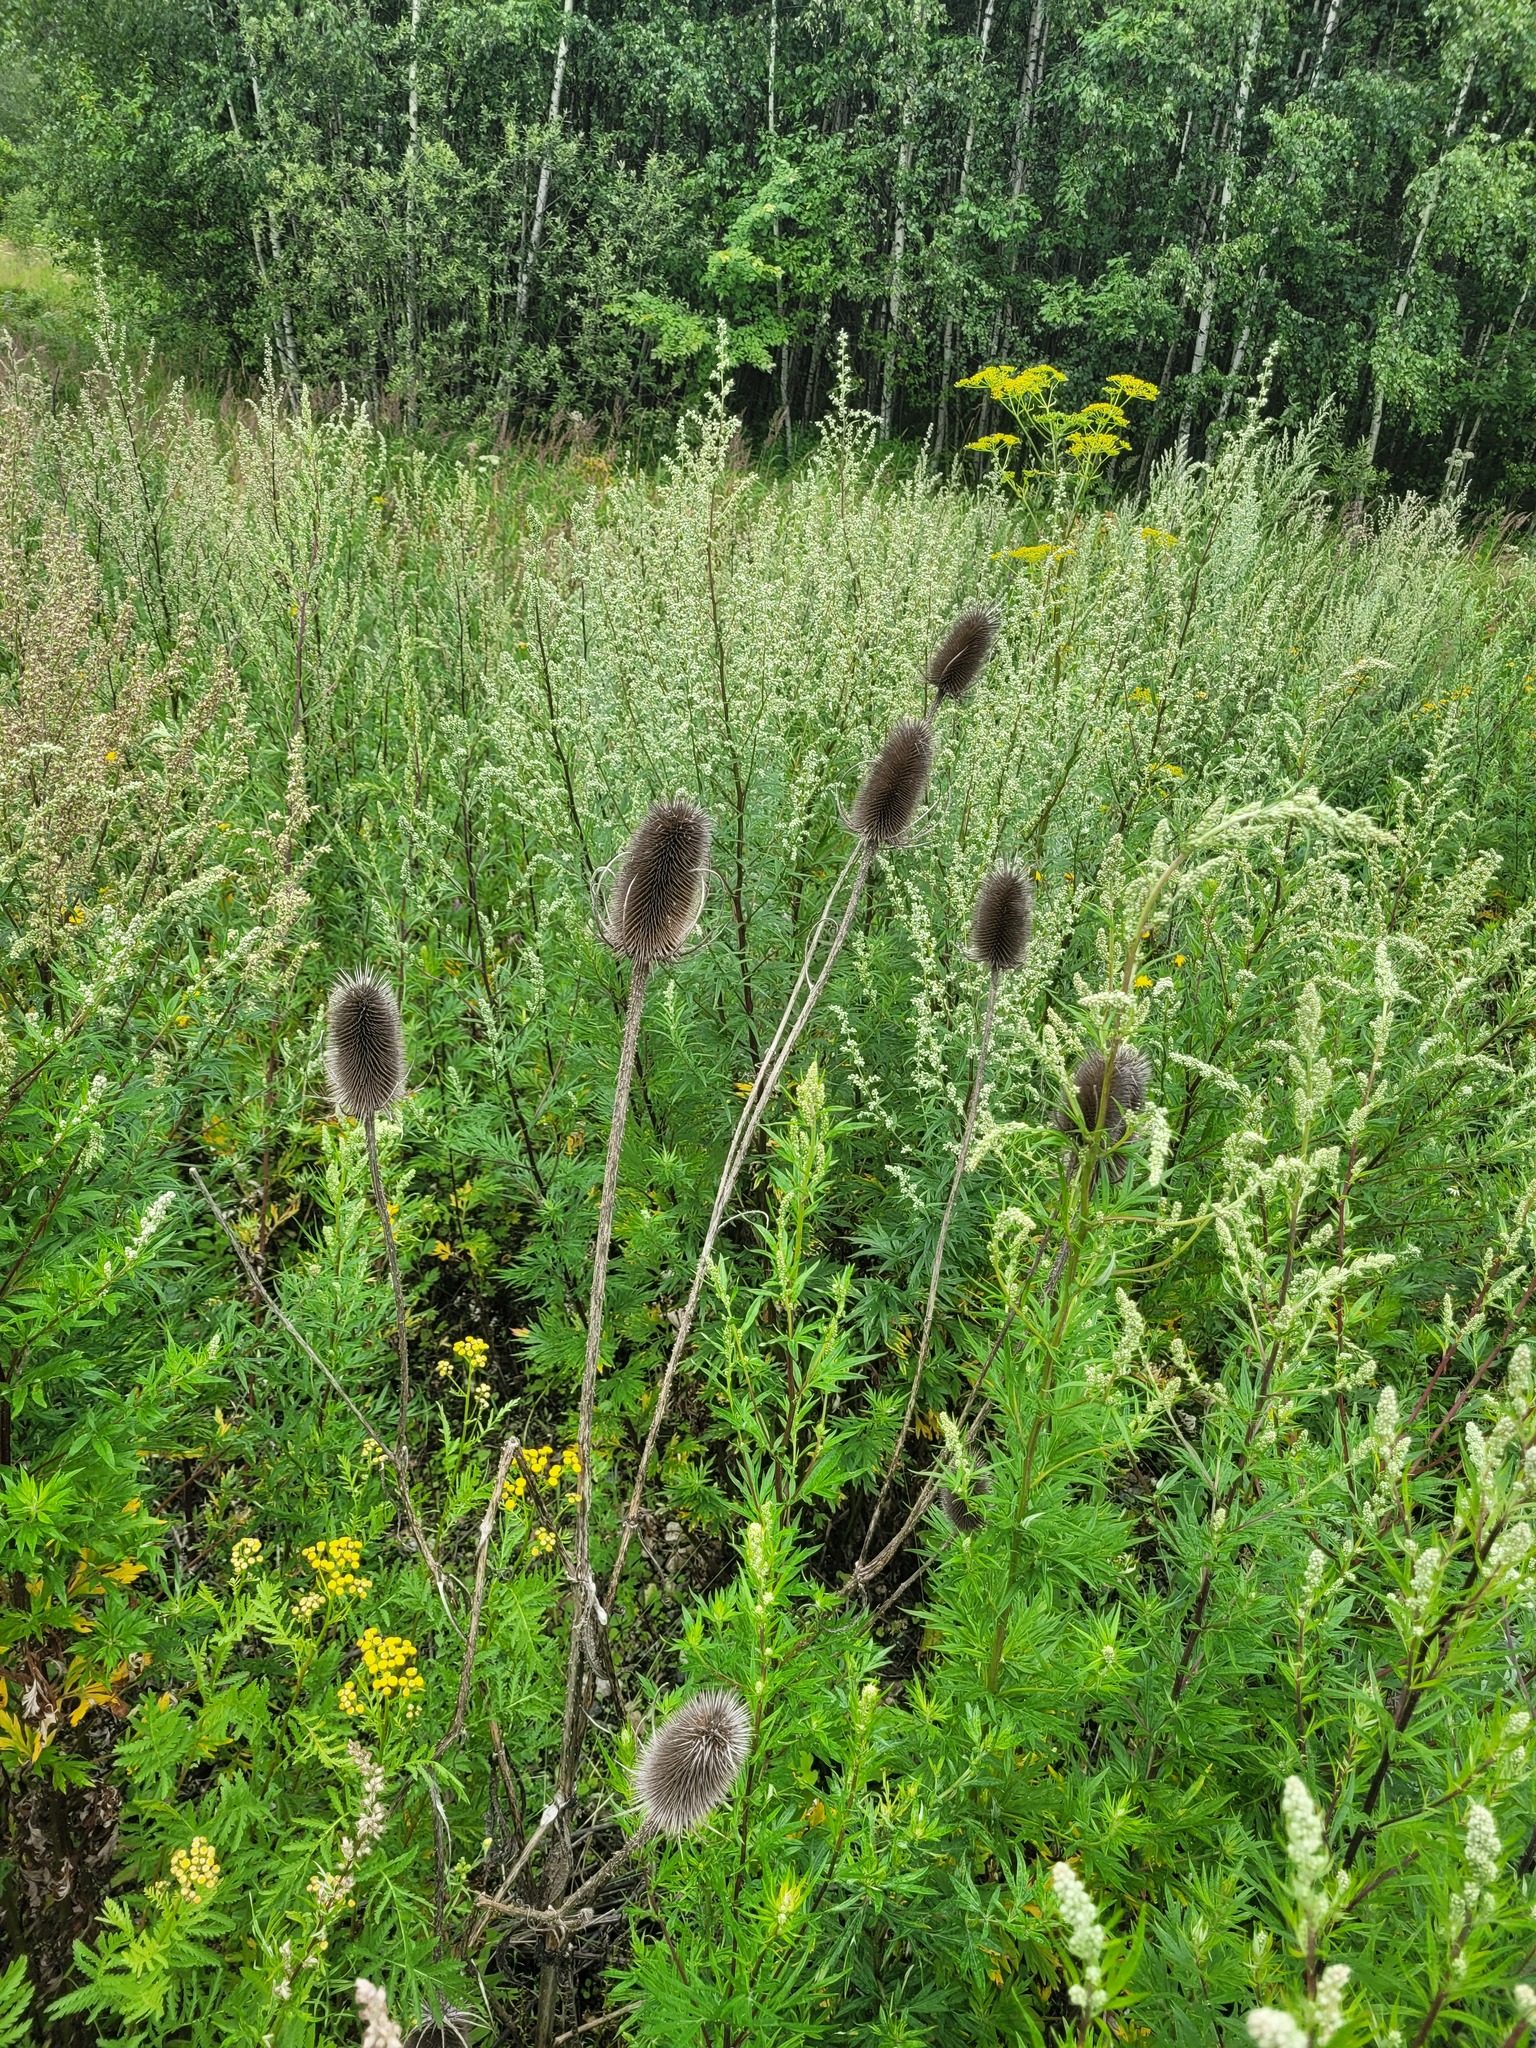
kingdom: Plantae
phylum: Tracheophyta
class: Magnoliopsida
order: Dipsacales
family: Caprifoliaceae
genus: Dipsacus
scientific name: Dipsacus fullonum
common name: Teasel
